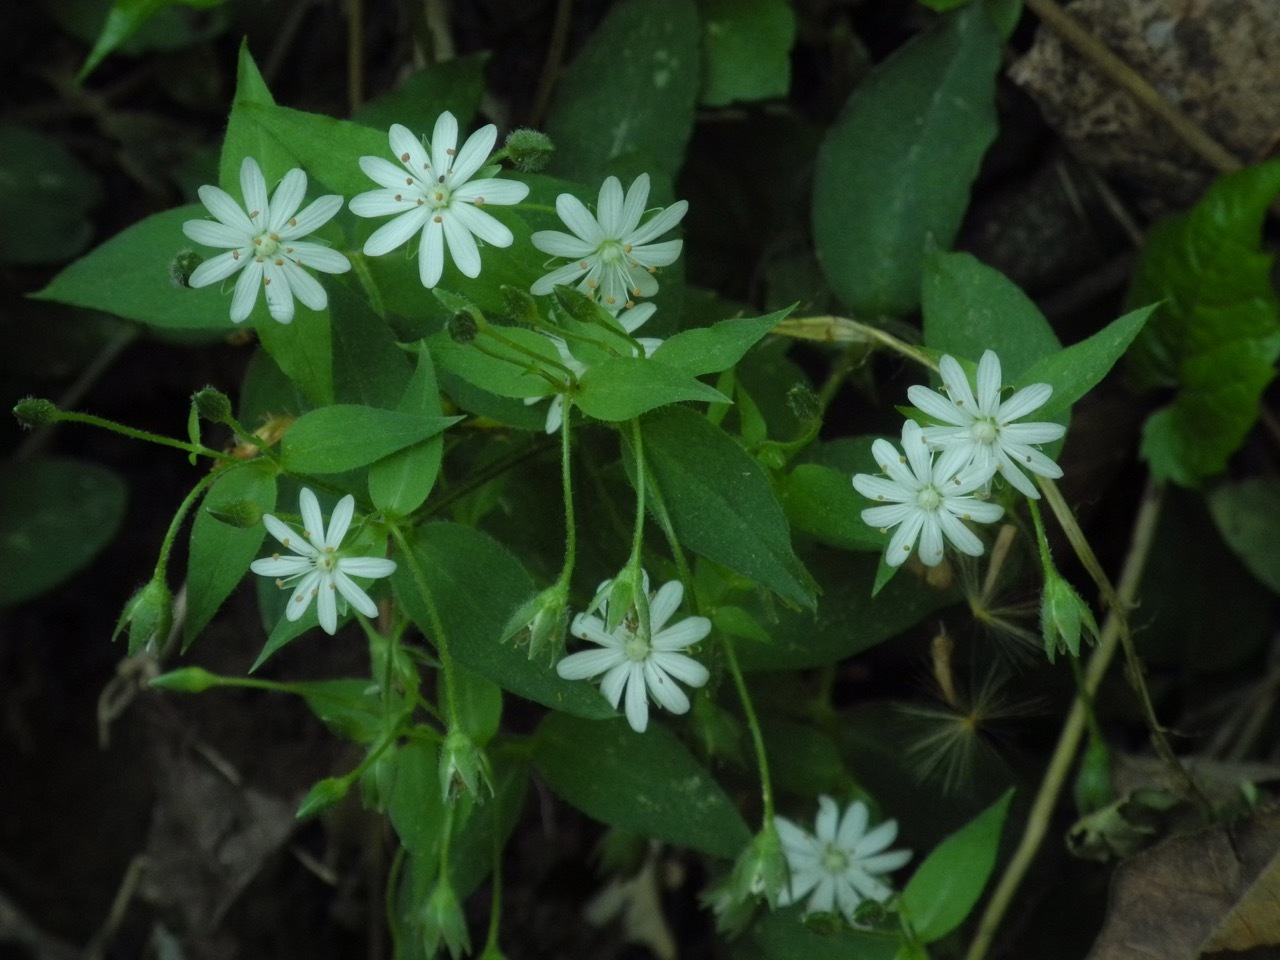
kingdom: Plantae
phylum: Tracheophyta
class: Magnoliopsida
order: Caryophyllales
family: Caryophyllaceae
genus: Stellaria
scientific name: Stellaria pubera
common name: Star chickweed
